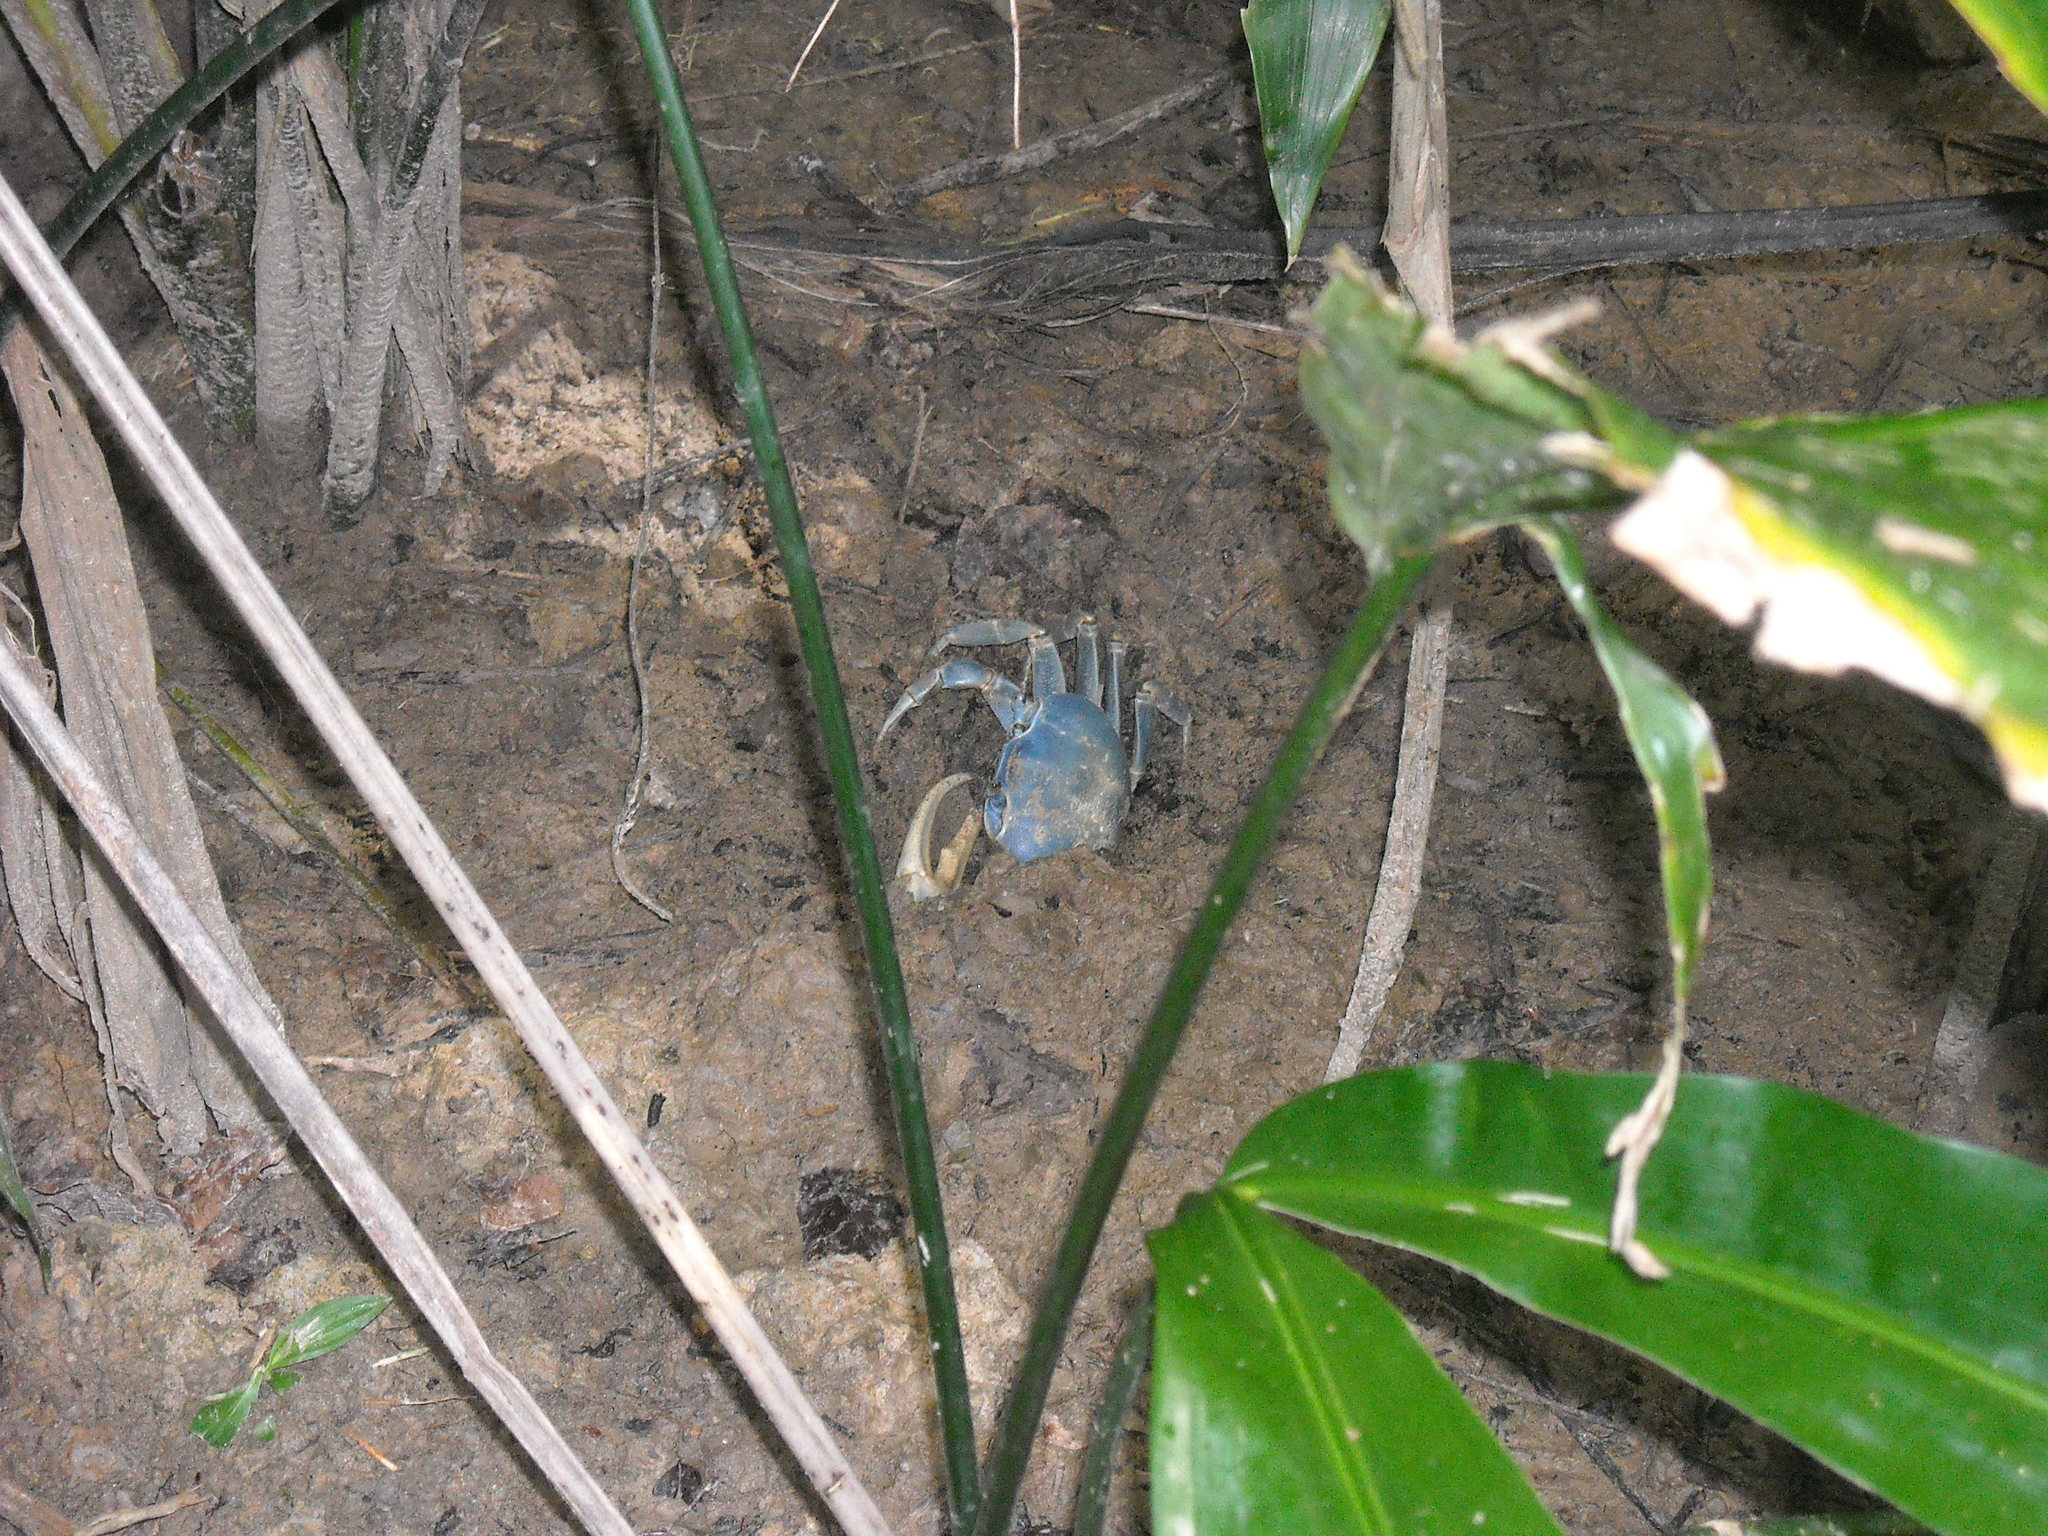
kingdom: Animalia
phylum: Arthropoda
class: Malacostraca
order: Decapoda
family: Gecarcinidae
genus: Cardisoma
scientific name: Cardisoma guanhumi
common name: Great land crab
